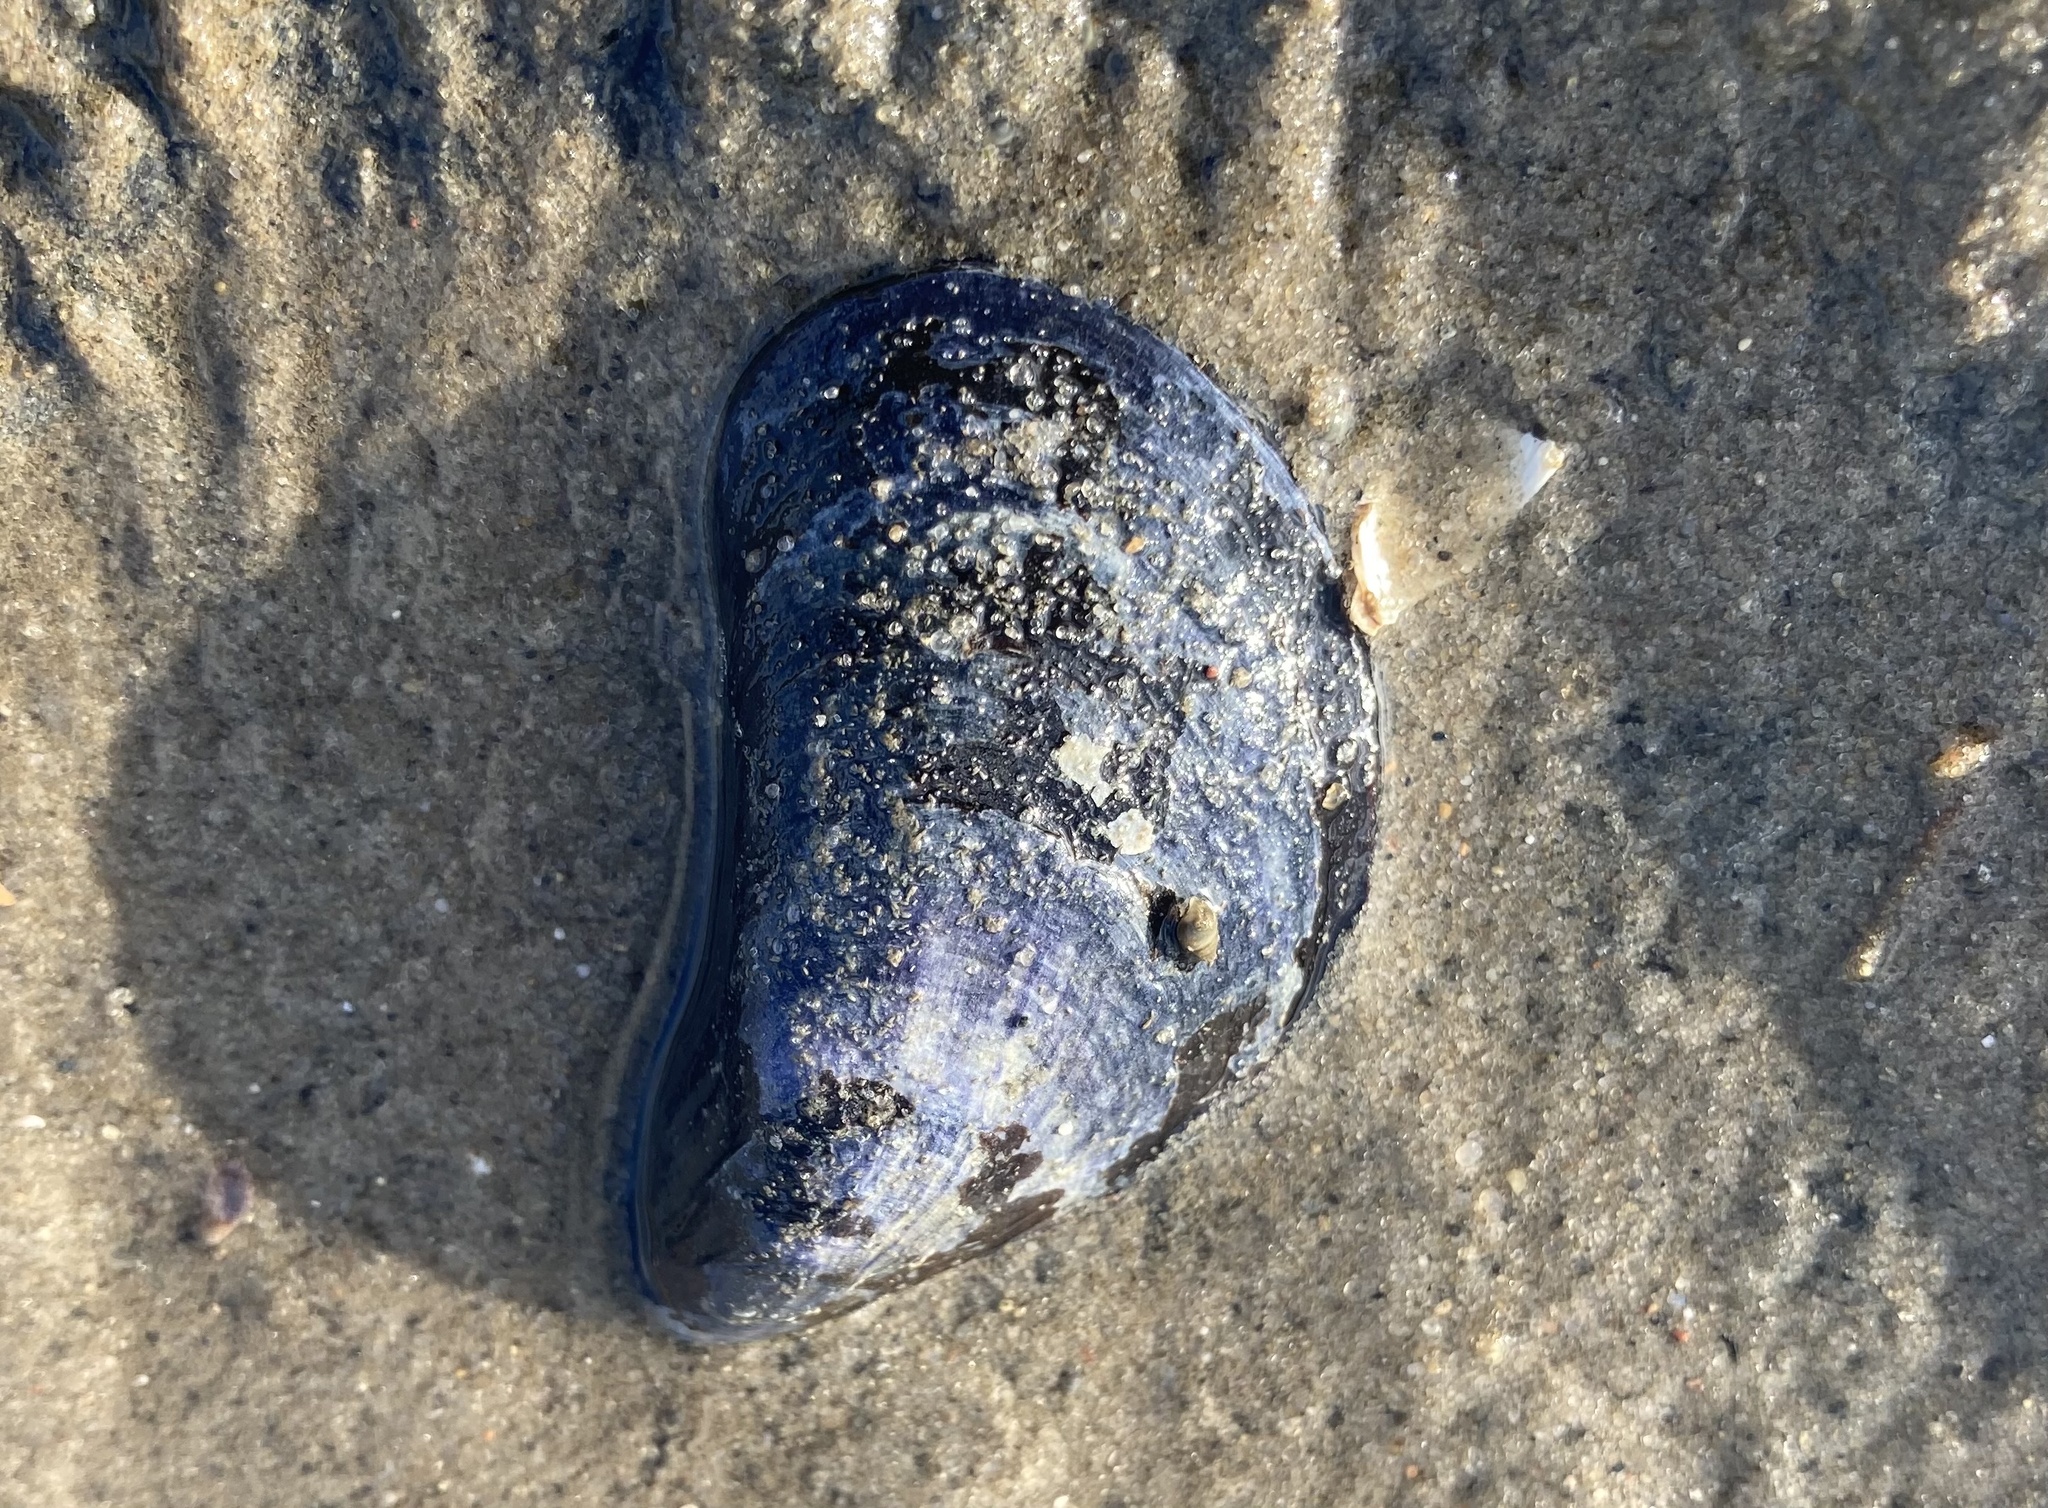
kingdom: Animalia
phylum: Mollusca
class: Bivalvia
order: Mytilida
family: Mytilidae
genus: Mytilus
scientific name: Mytilus edulis
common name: Blue mussel
